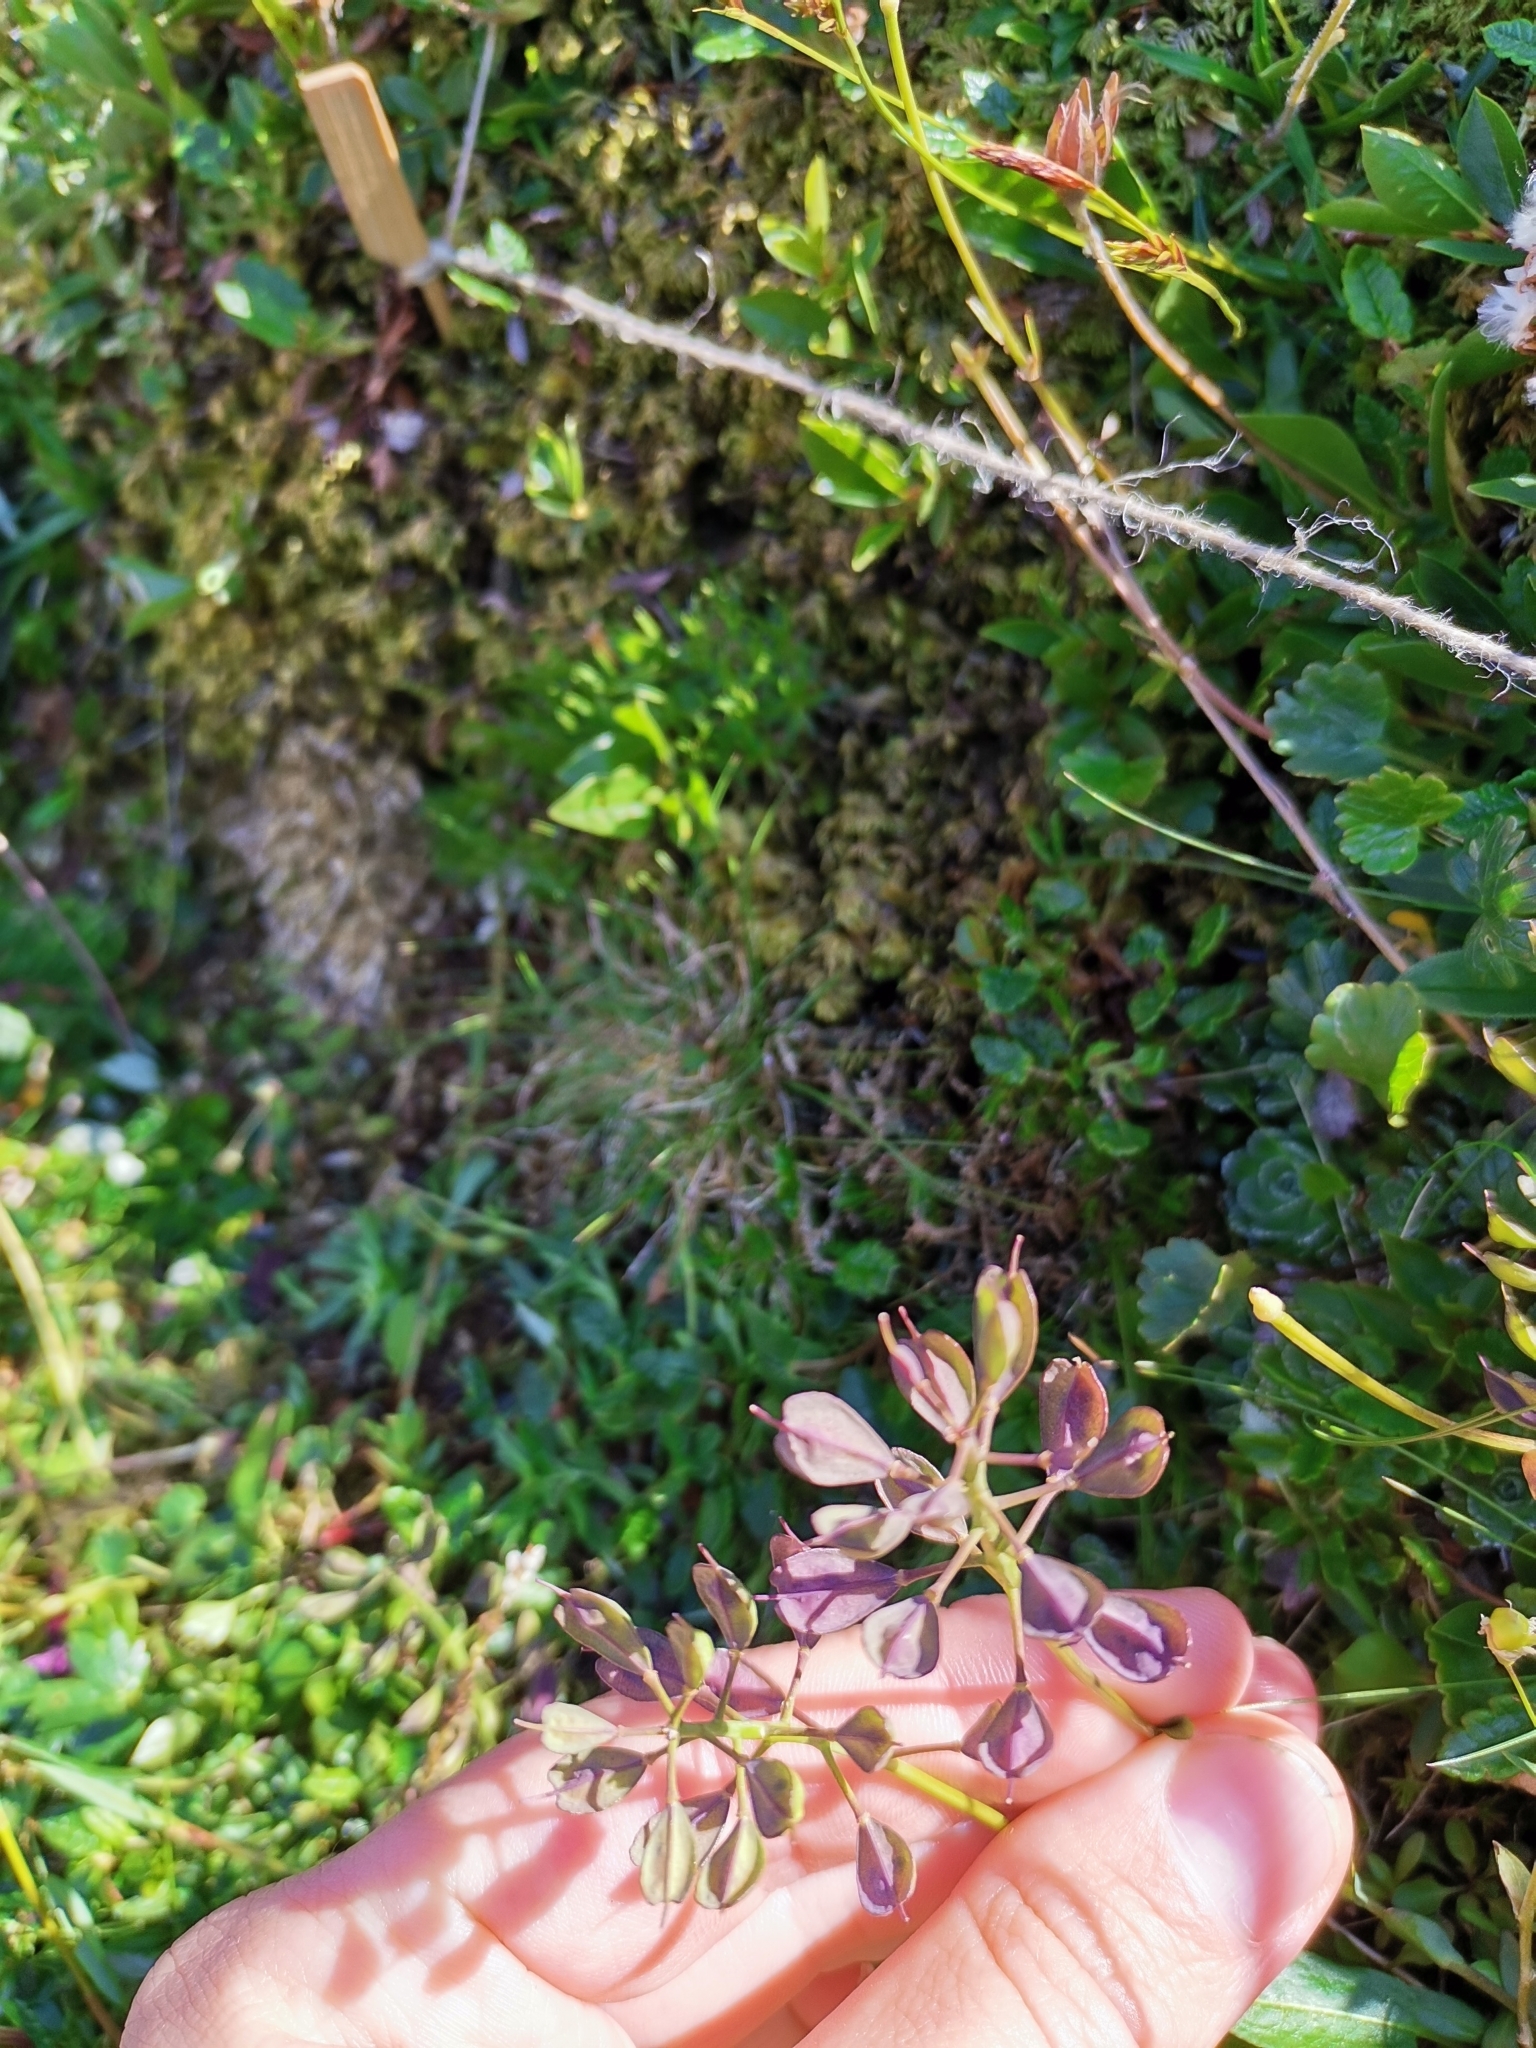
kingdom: Plantae
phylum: Tracheophyta
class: Magnoliopsida
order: Brassicales
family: Brassicaceae
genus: Noccaea
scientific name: Noccaea alpestris
